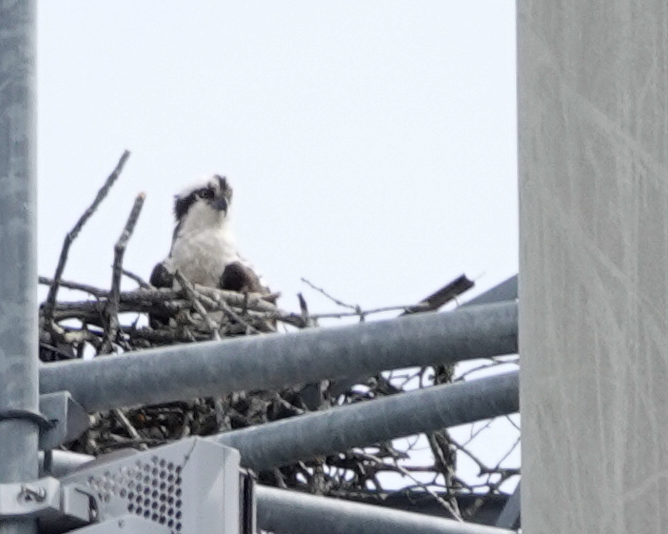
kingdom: Animalia
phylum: Chordata
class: Aves
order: Accipitriformes
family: Pandionidae
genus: Pandion
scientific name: Pandion haliaetus
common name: Osprey
